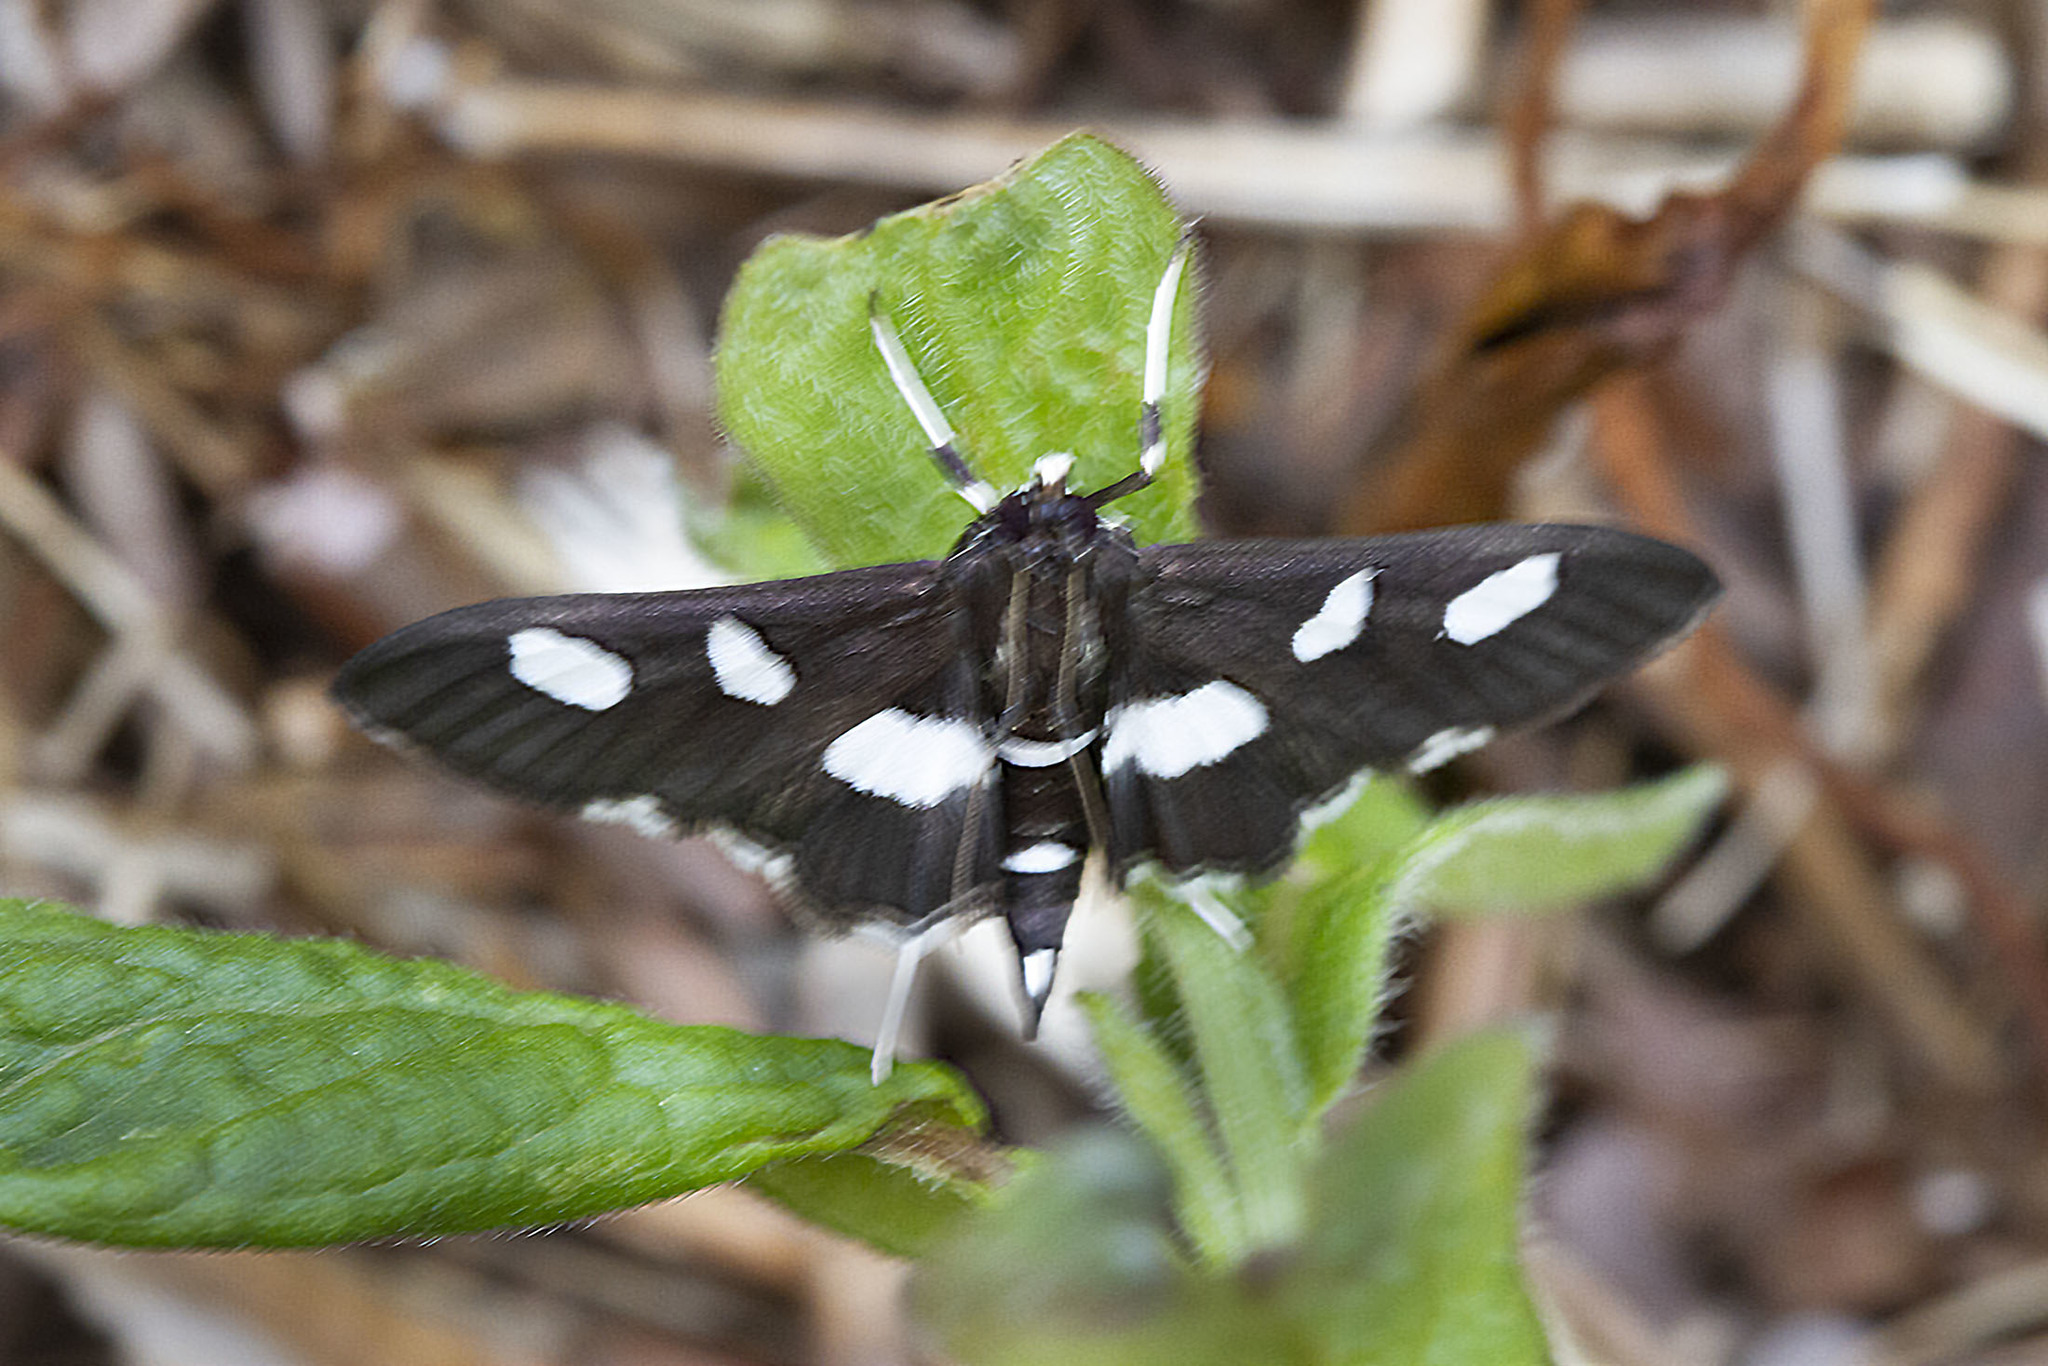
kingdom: Animalia
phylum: Arthropoda
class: Insecta
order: Lepidoptera
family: Crambidae
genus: Desmia
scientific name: Desmia funeralis
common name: Grape leaf folder moth
